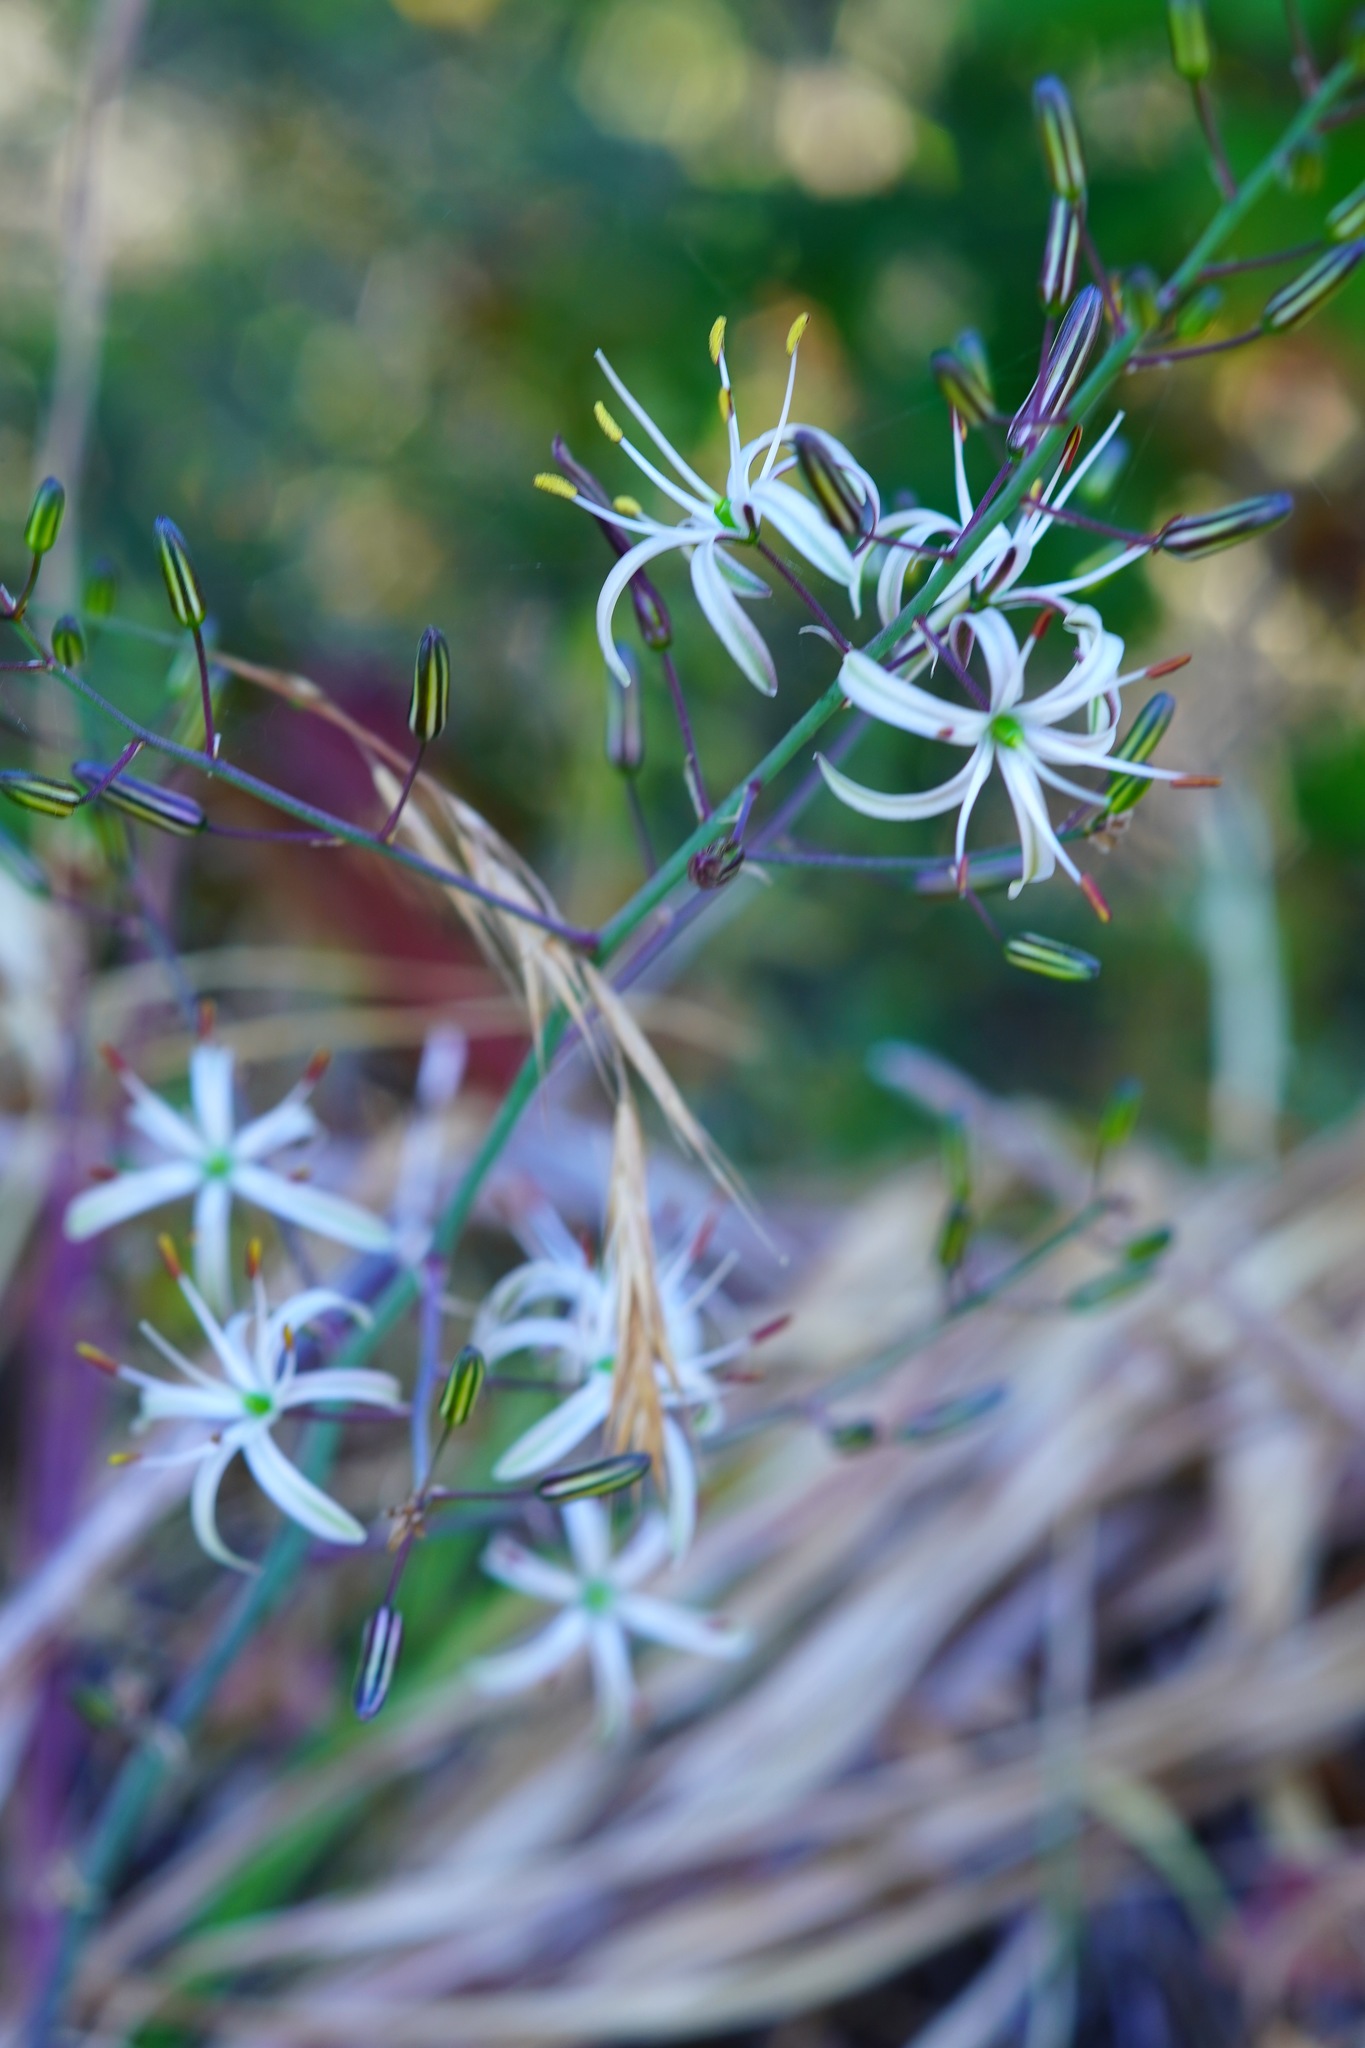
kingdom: Plantae
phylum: Tracheophyta
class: Liliopsida
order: Asparagales
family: Asparagaceae
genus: Chlorogalum
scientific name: Chlorogalum pomeridianum
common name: Amole
